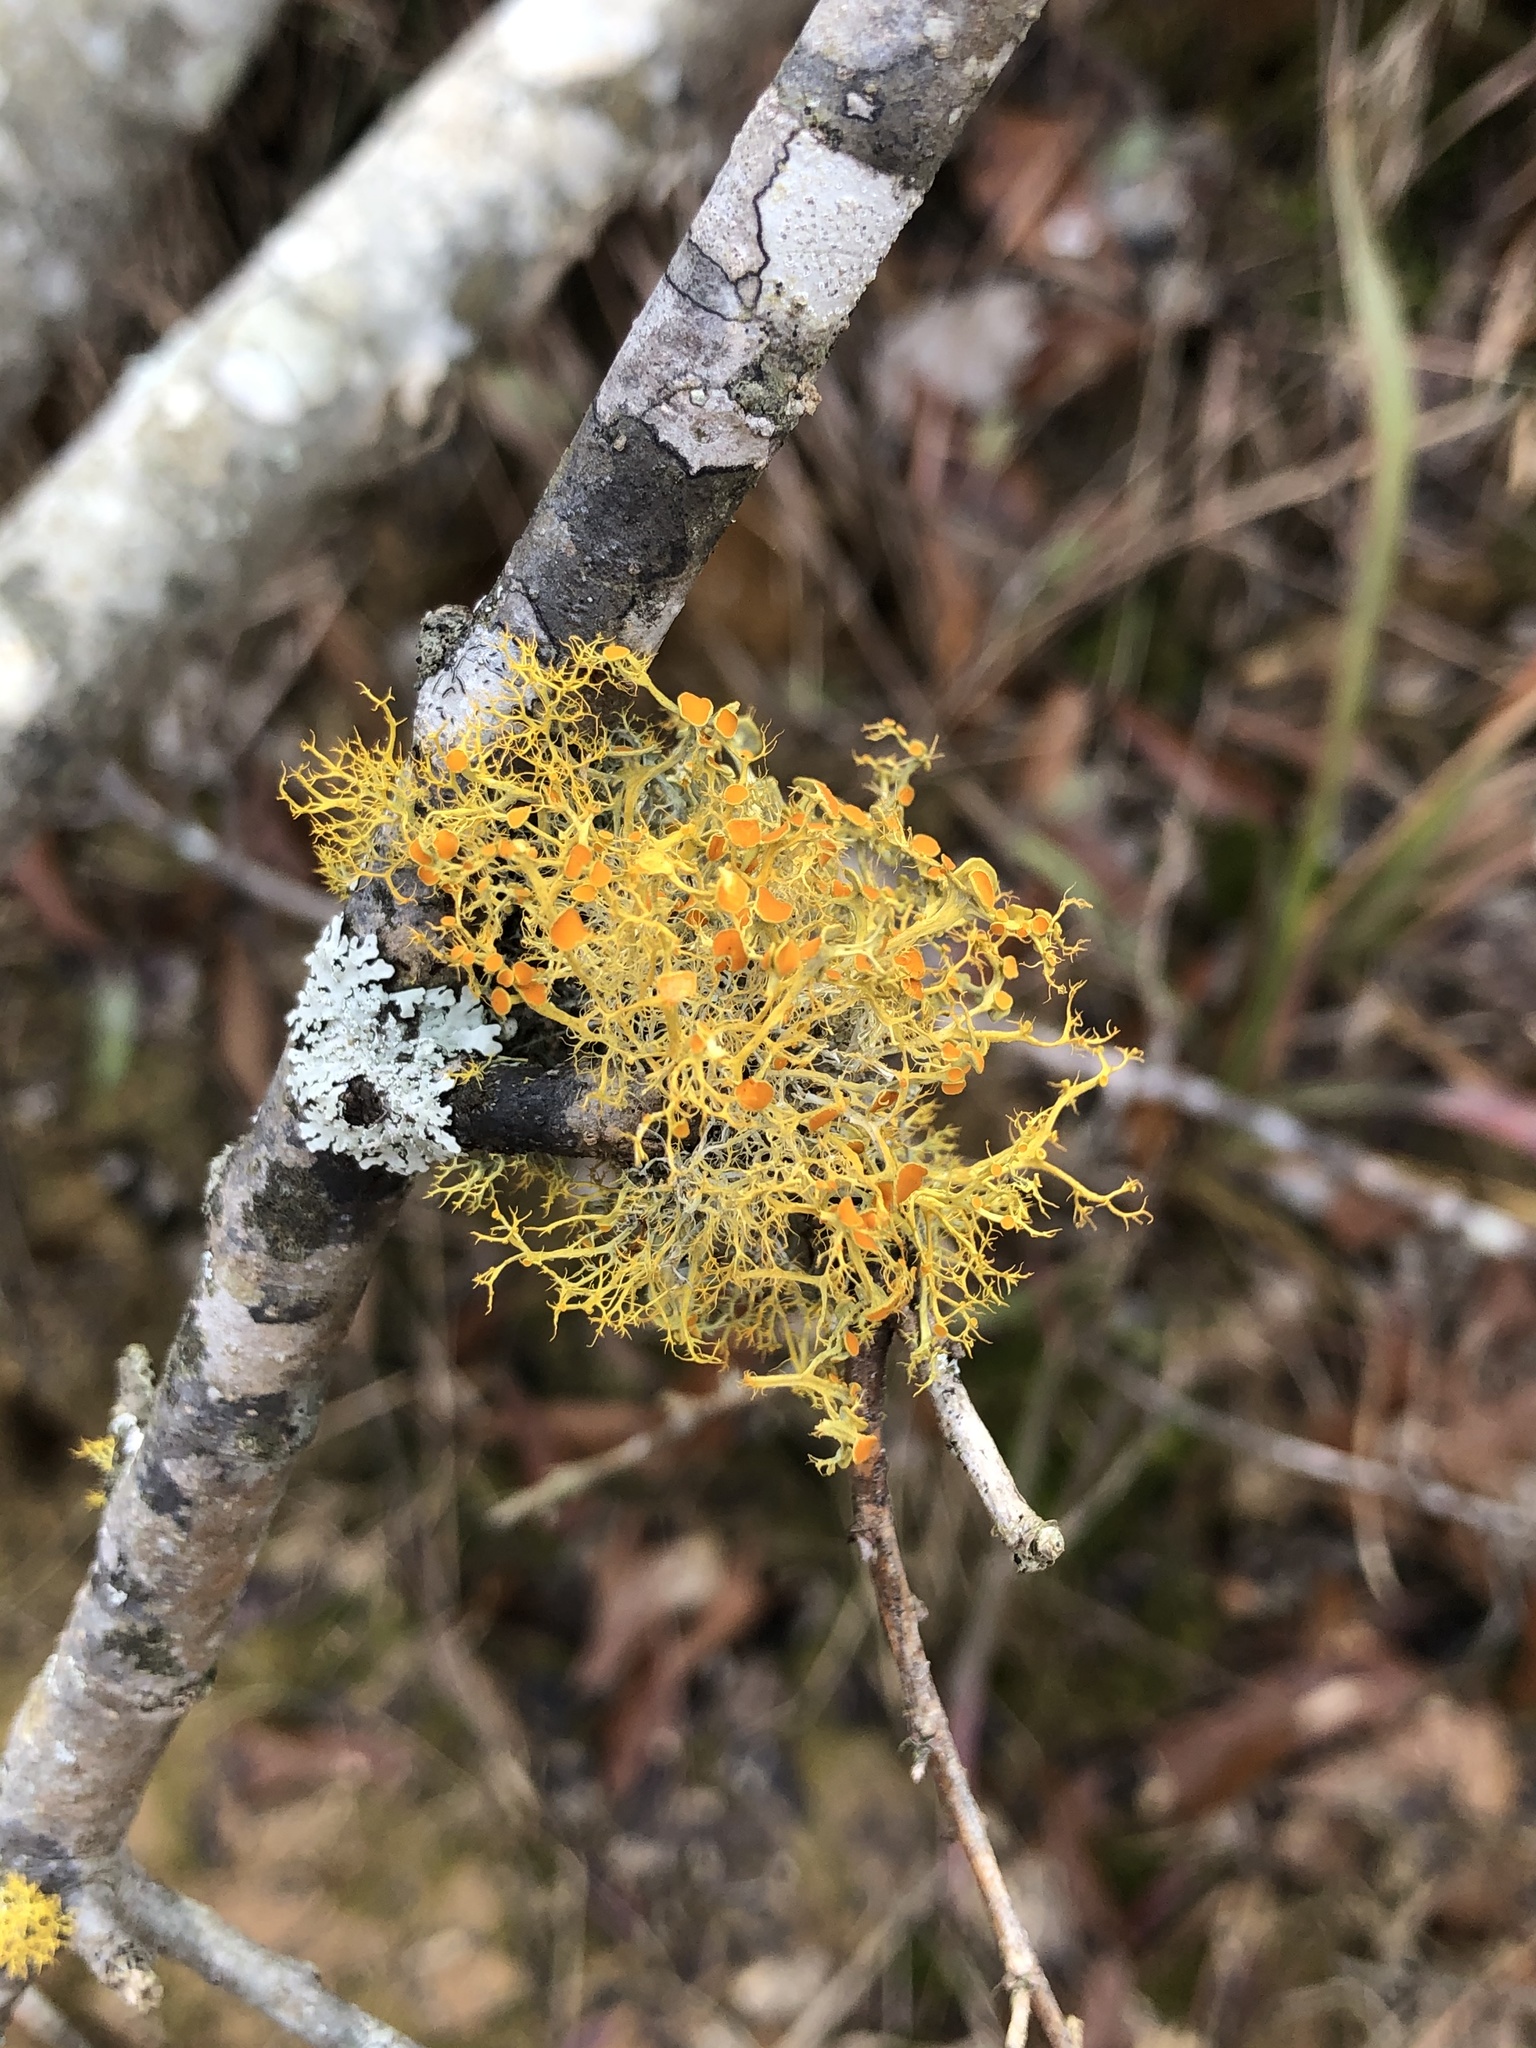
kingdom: Fungi
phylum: Ascomycota
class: Lecanoromycetes
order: Teloschistales
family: Teloschistaceae
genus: Teloschistes
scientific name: Teloschistes exilis
